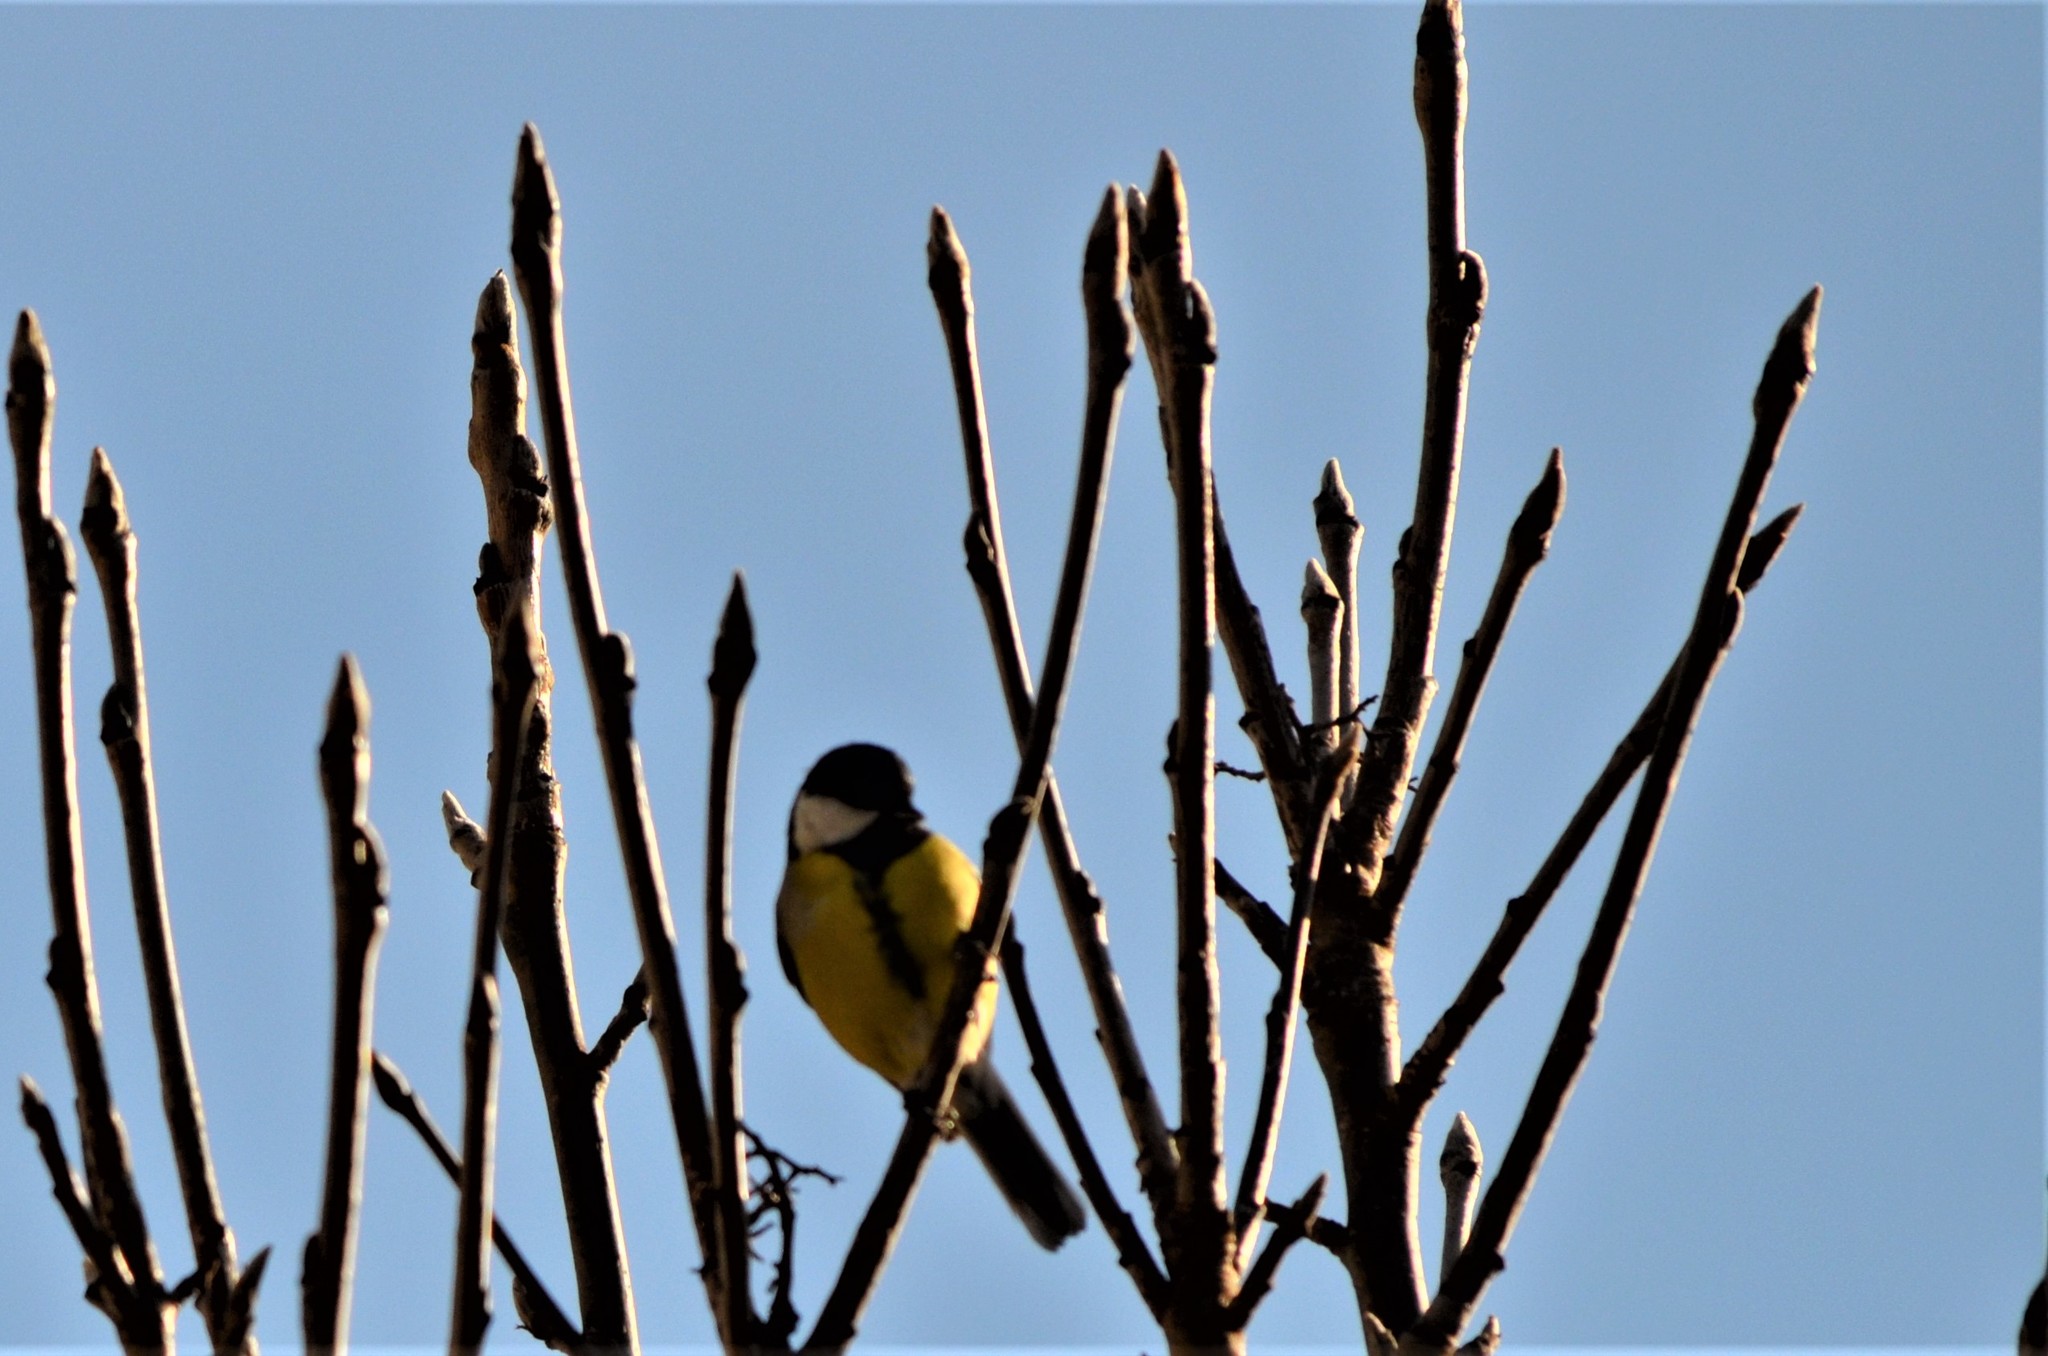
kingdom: Animalia
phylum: Chordata
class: Aves
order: Passeriformes
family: Paridae
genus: Parus
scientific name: Parus major
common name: Great tit
